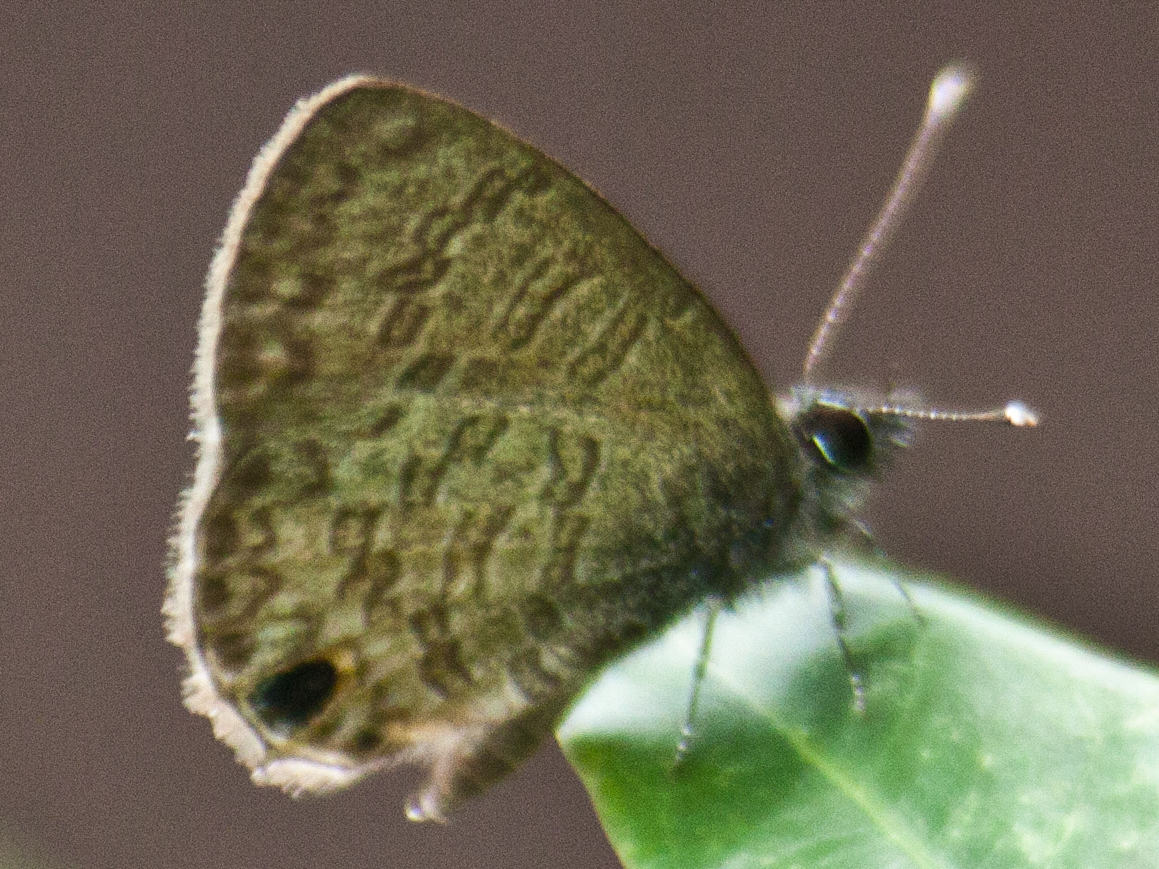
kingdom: Animalia
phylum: Arthropoda
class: Insecta
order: Lepidoptera
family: Lycaenidae
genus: Prosotas
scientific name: Prosotas dubiosa
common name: Tailless lineblue
